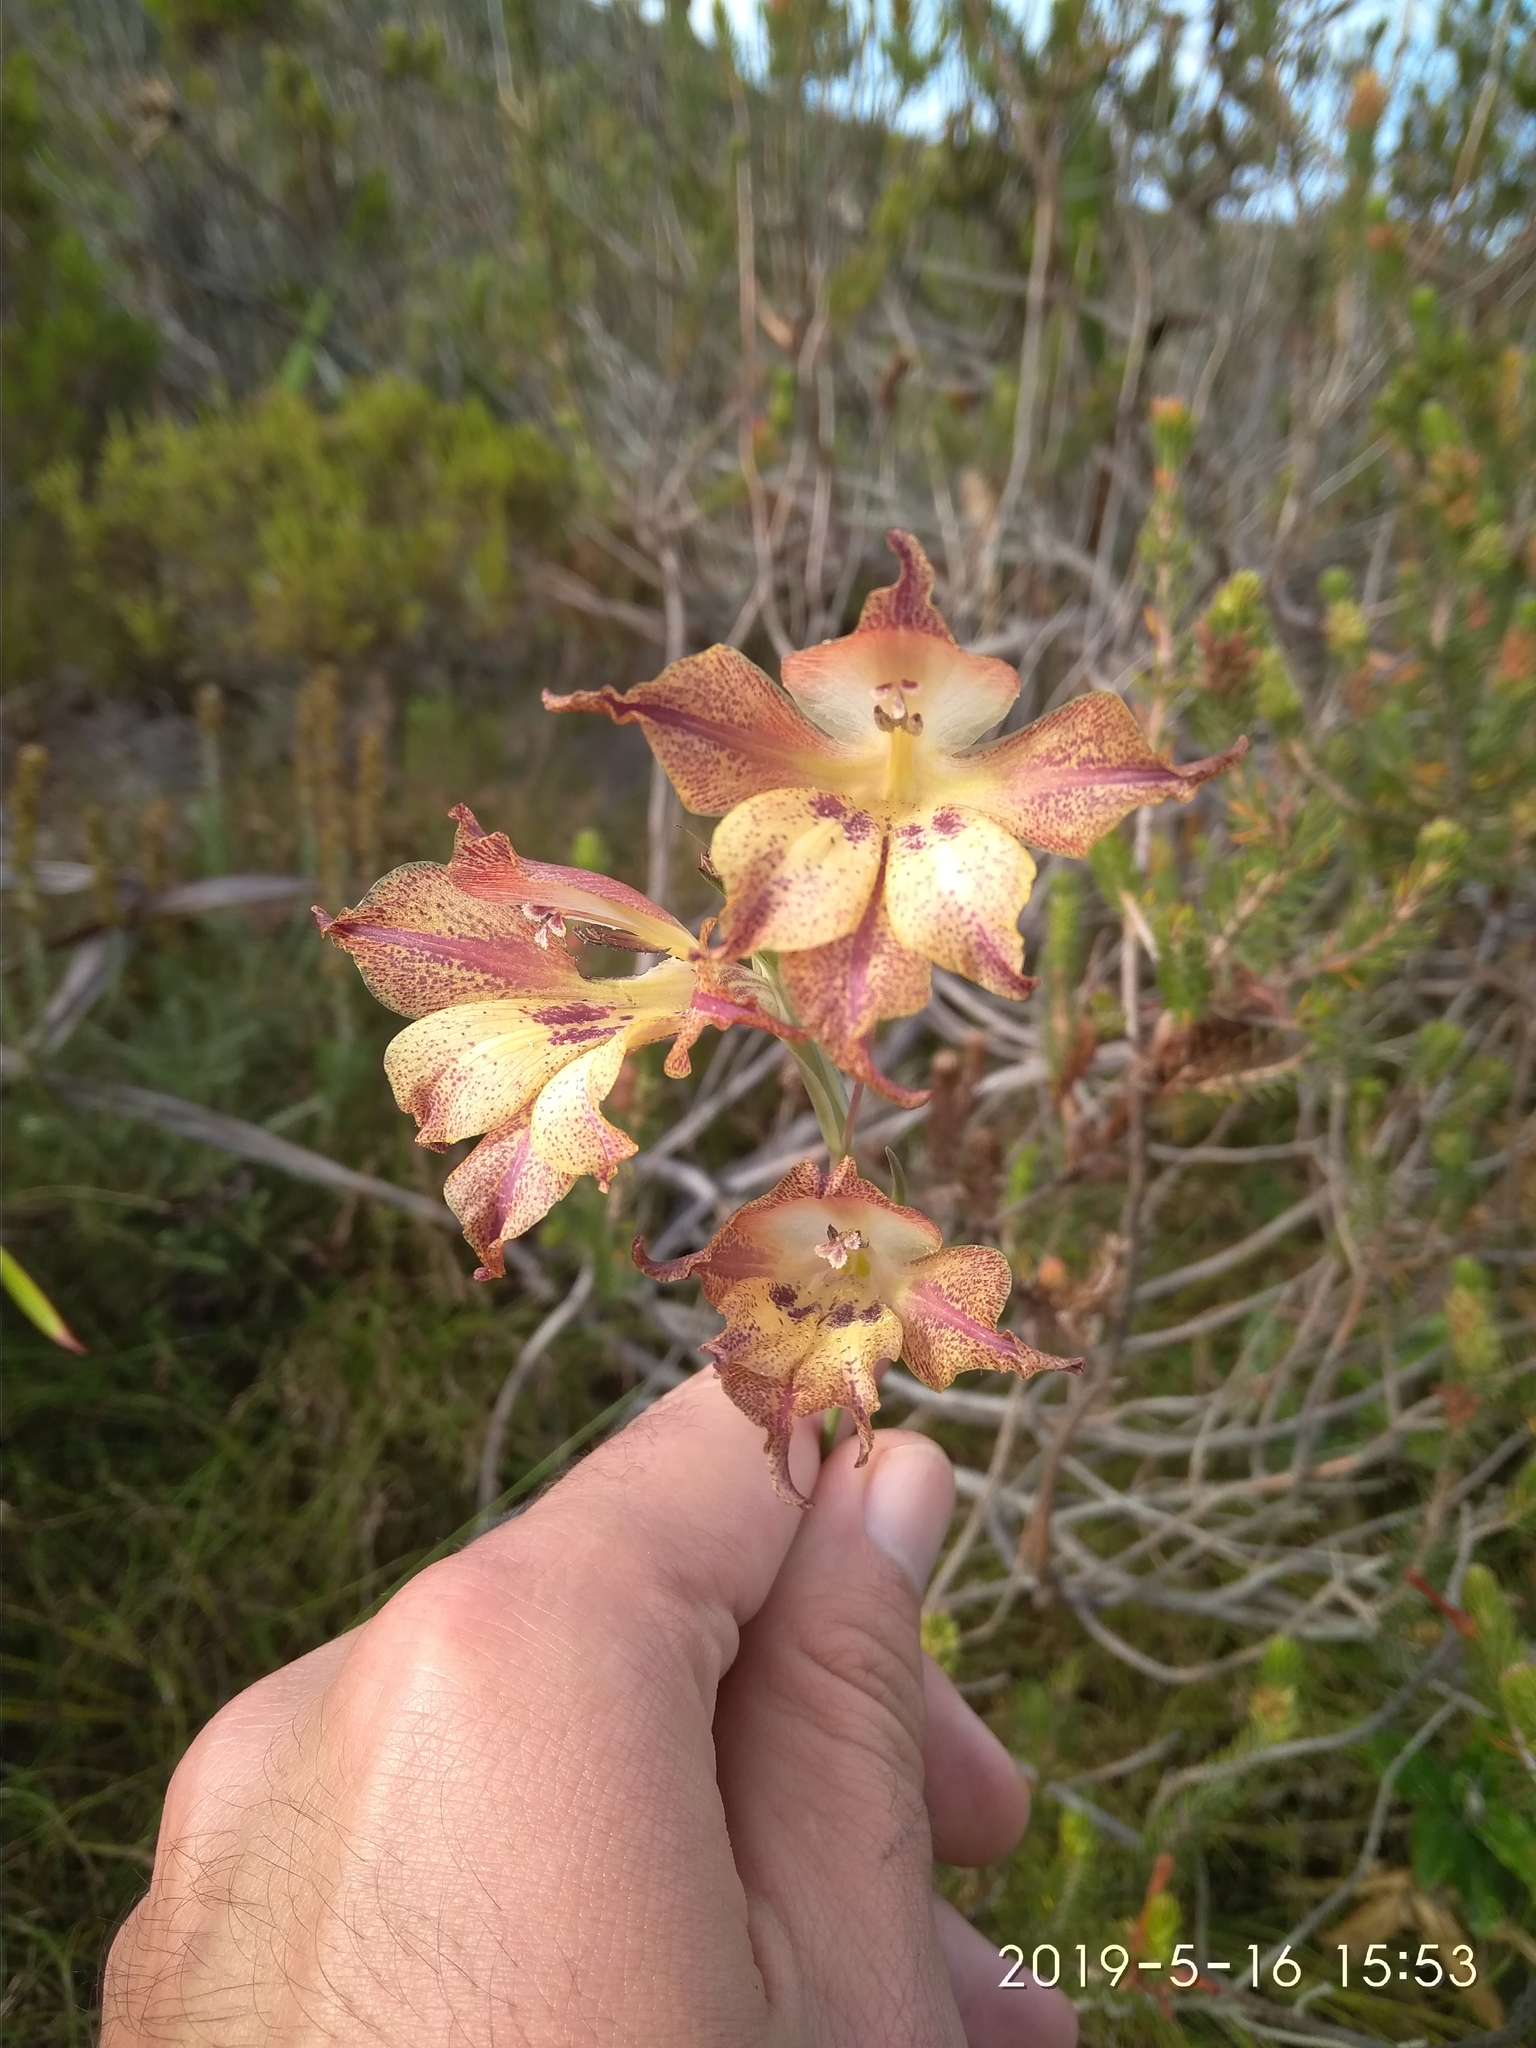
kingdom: Plantae
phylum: Tracheophyta
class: Liliopsida
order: Asparagales
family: Iridaceae
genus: Gladiolus
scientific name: Gladiolus maculatus
